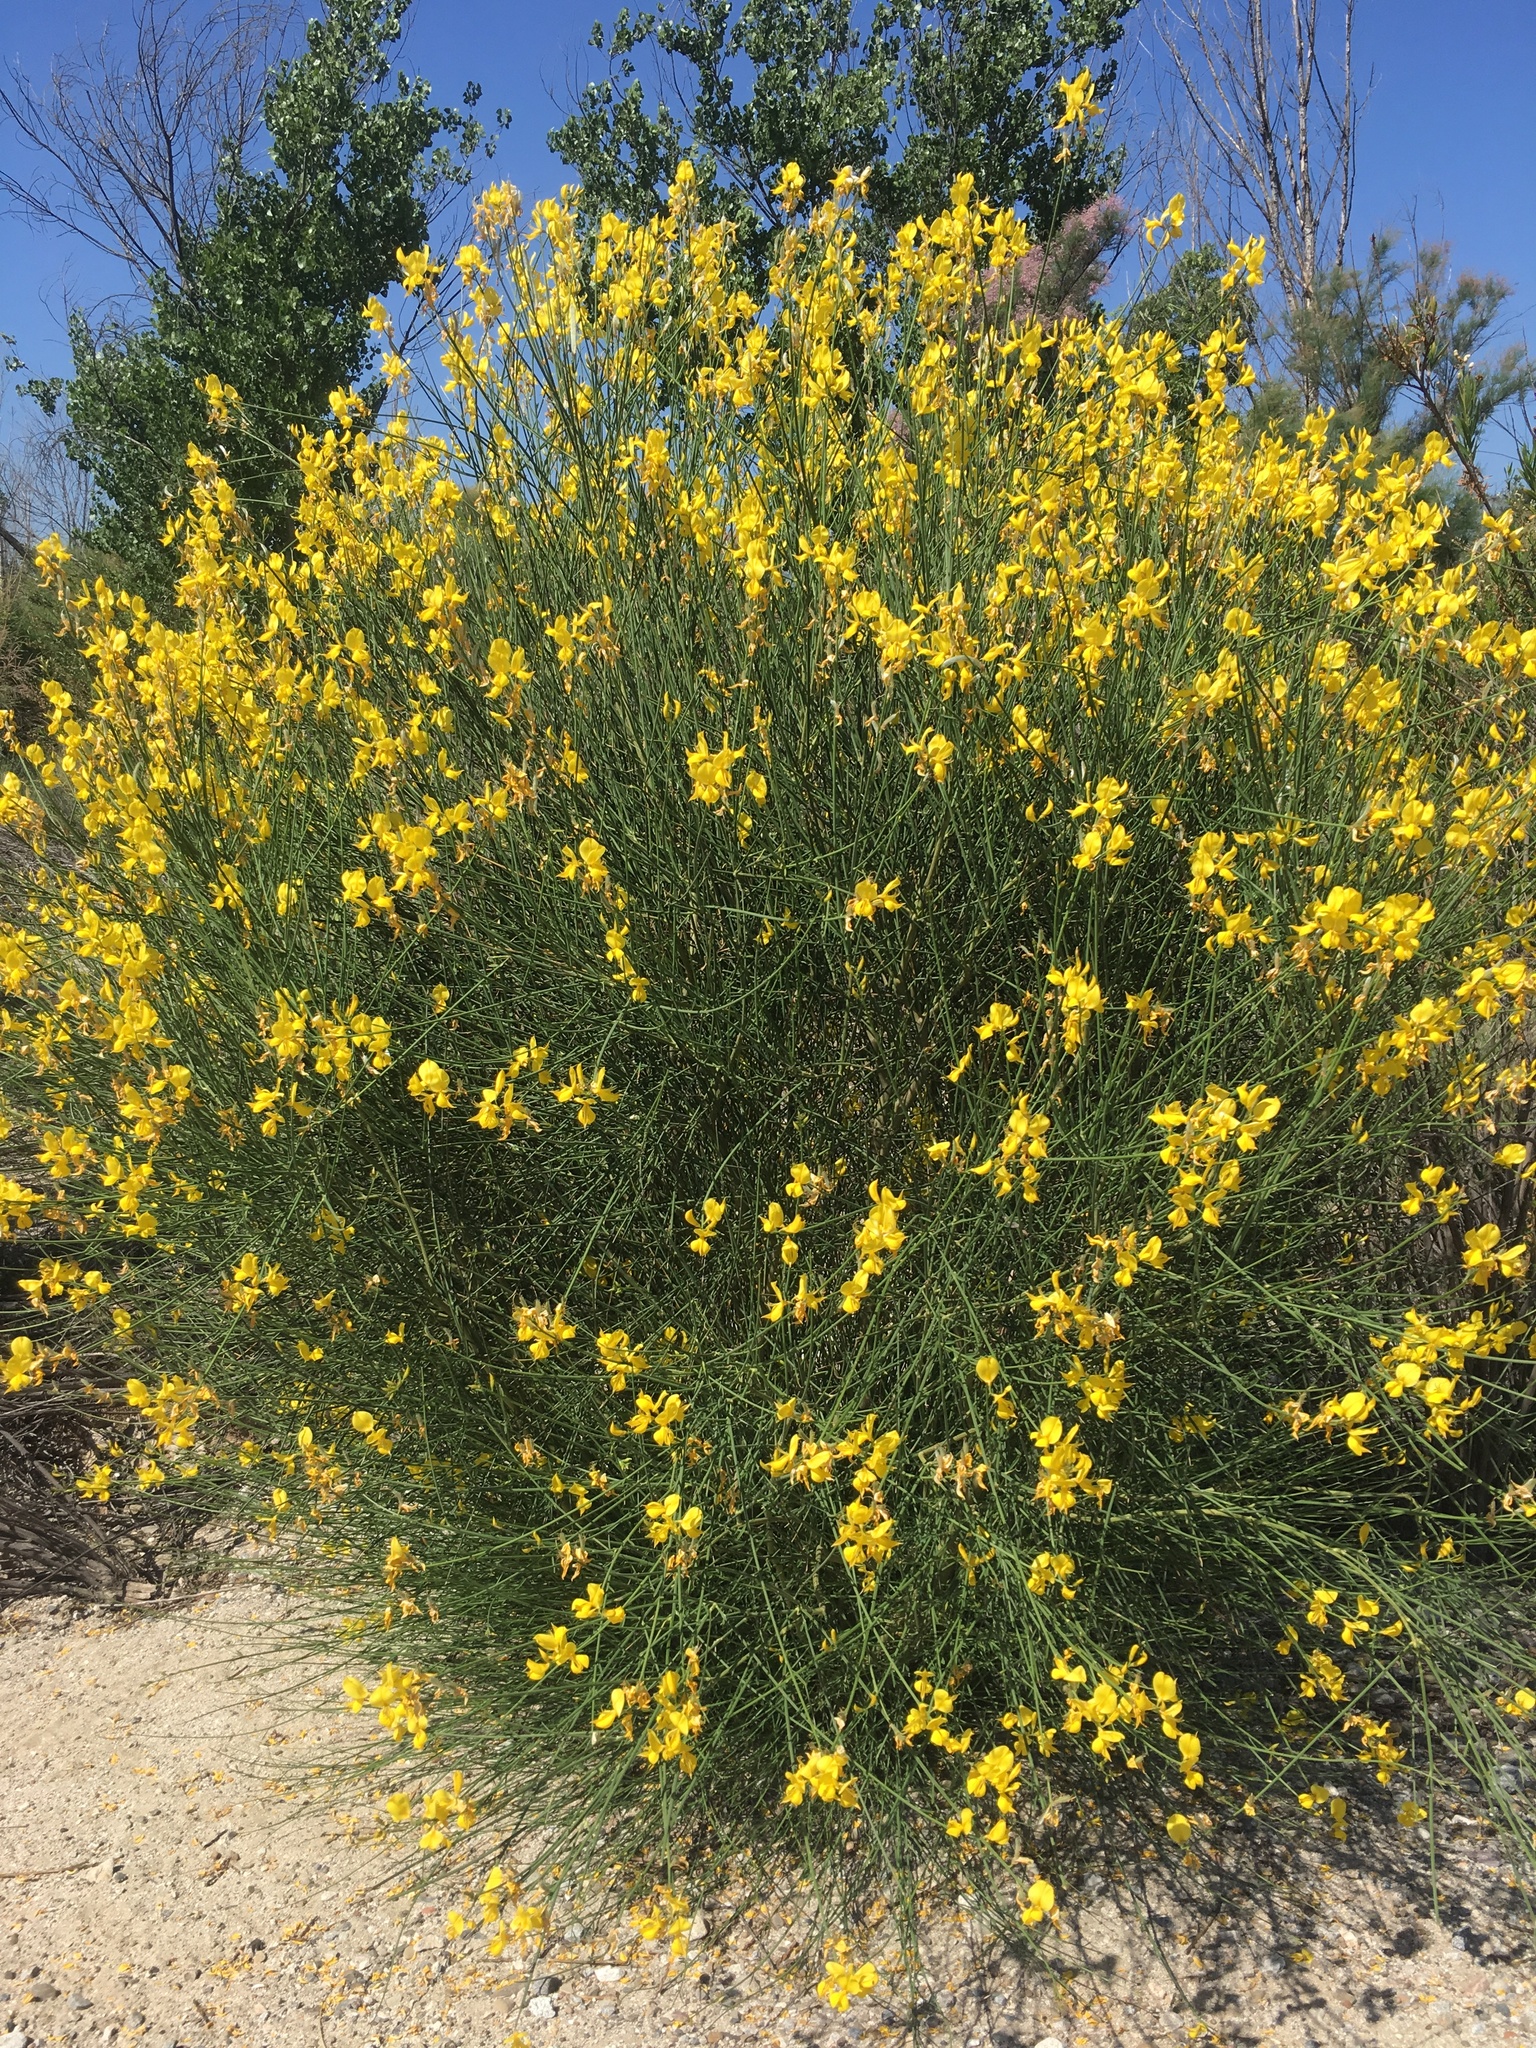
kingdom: Plantae
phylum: Tracheophyta
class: Magnoliopsida
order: Fabales
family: Fabaceae
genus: Spartium
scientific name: Spartium junceum
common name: Spanish broom
